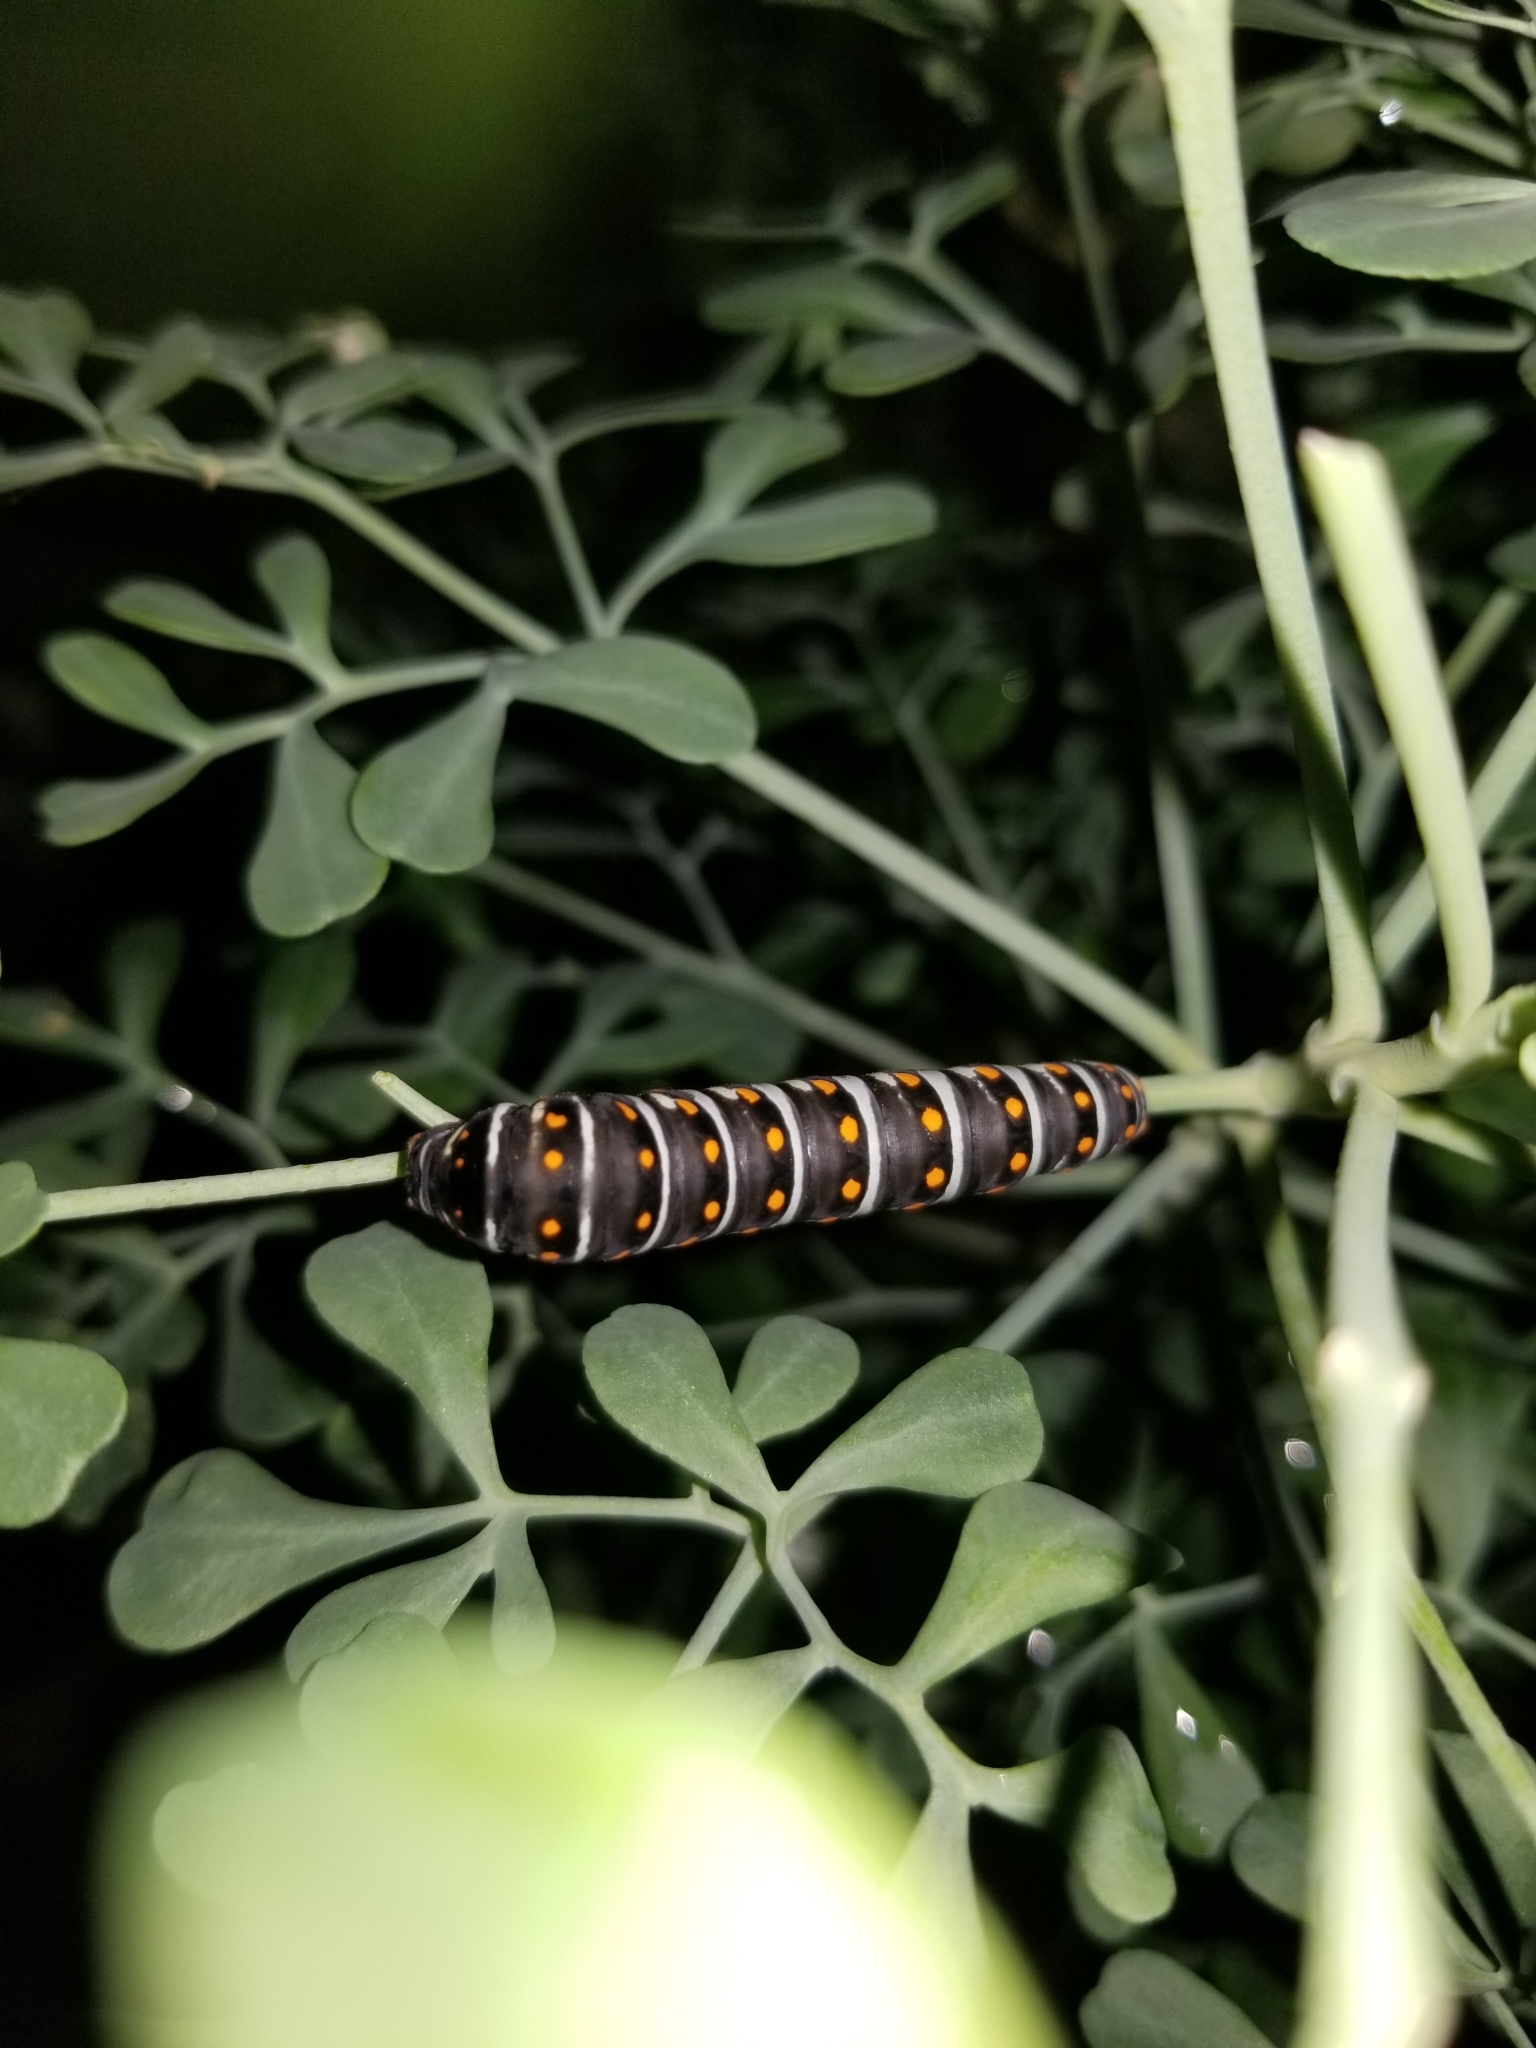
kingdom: Animalia
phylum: Arthropoda
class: Insecta
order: Lepidoptera
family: Papilionidae
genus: Papilio
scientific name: Papilio polyxenes
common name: Black swallowtail
